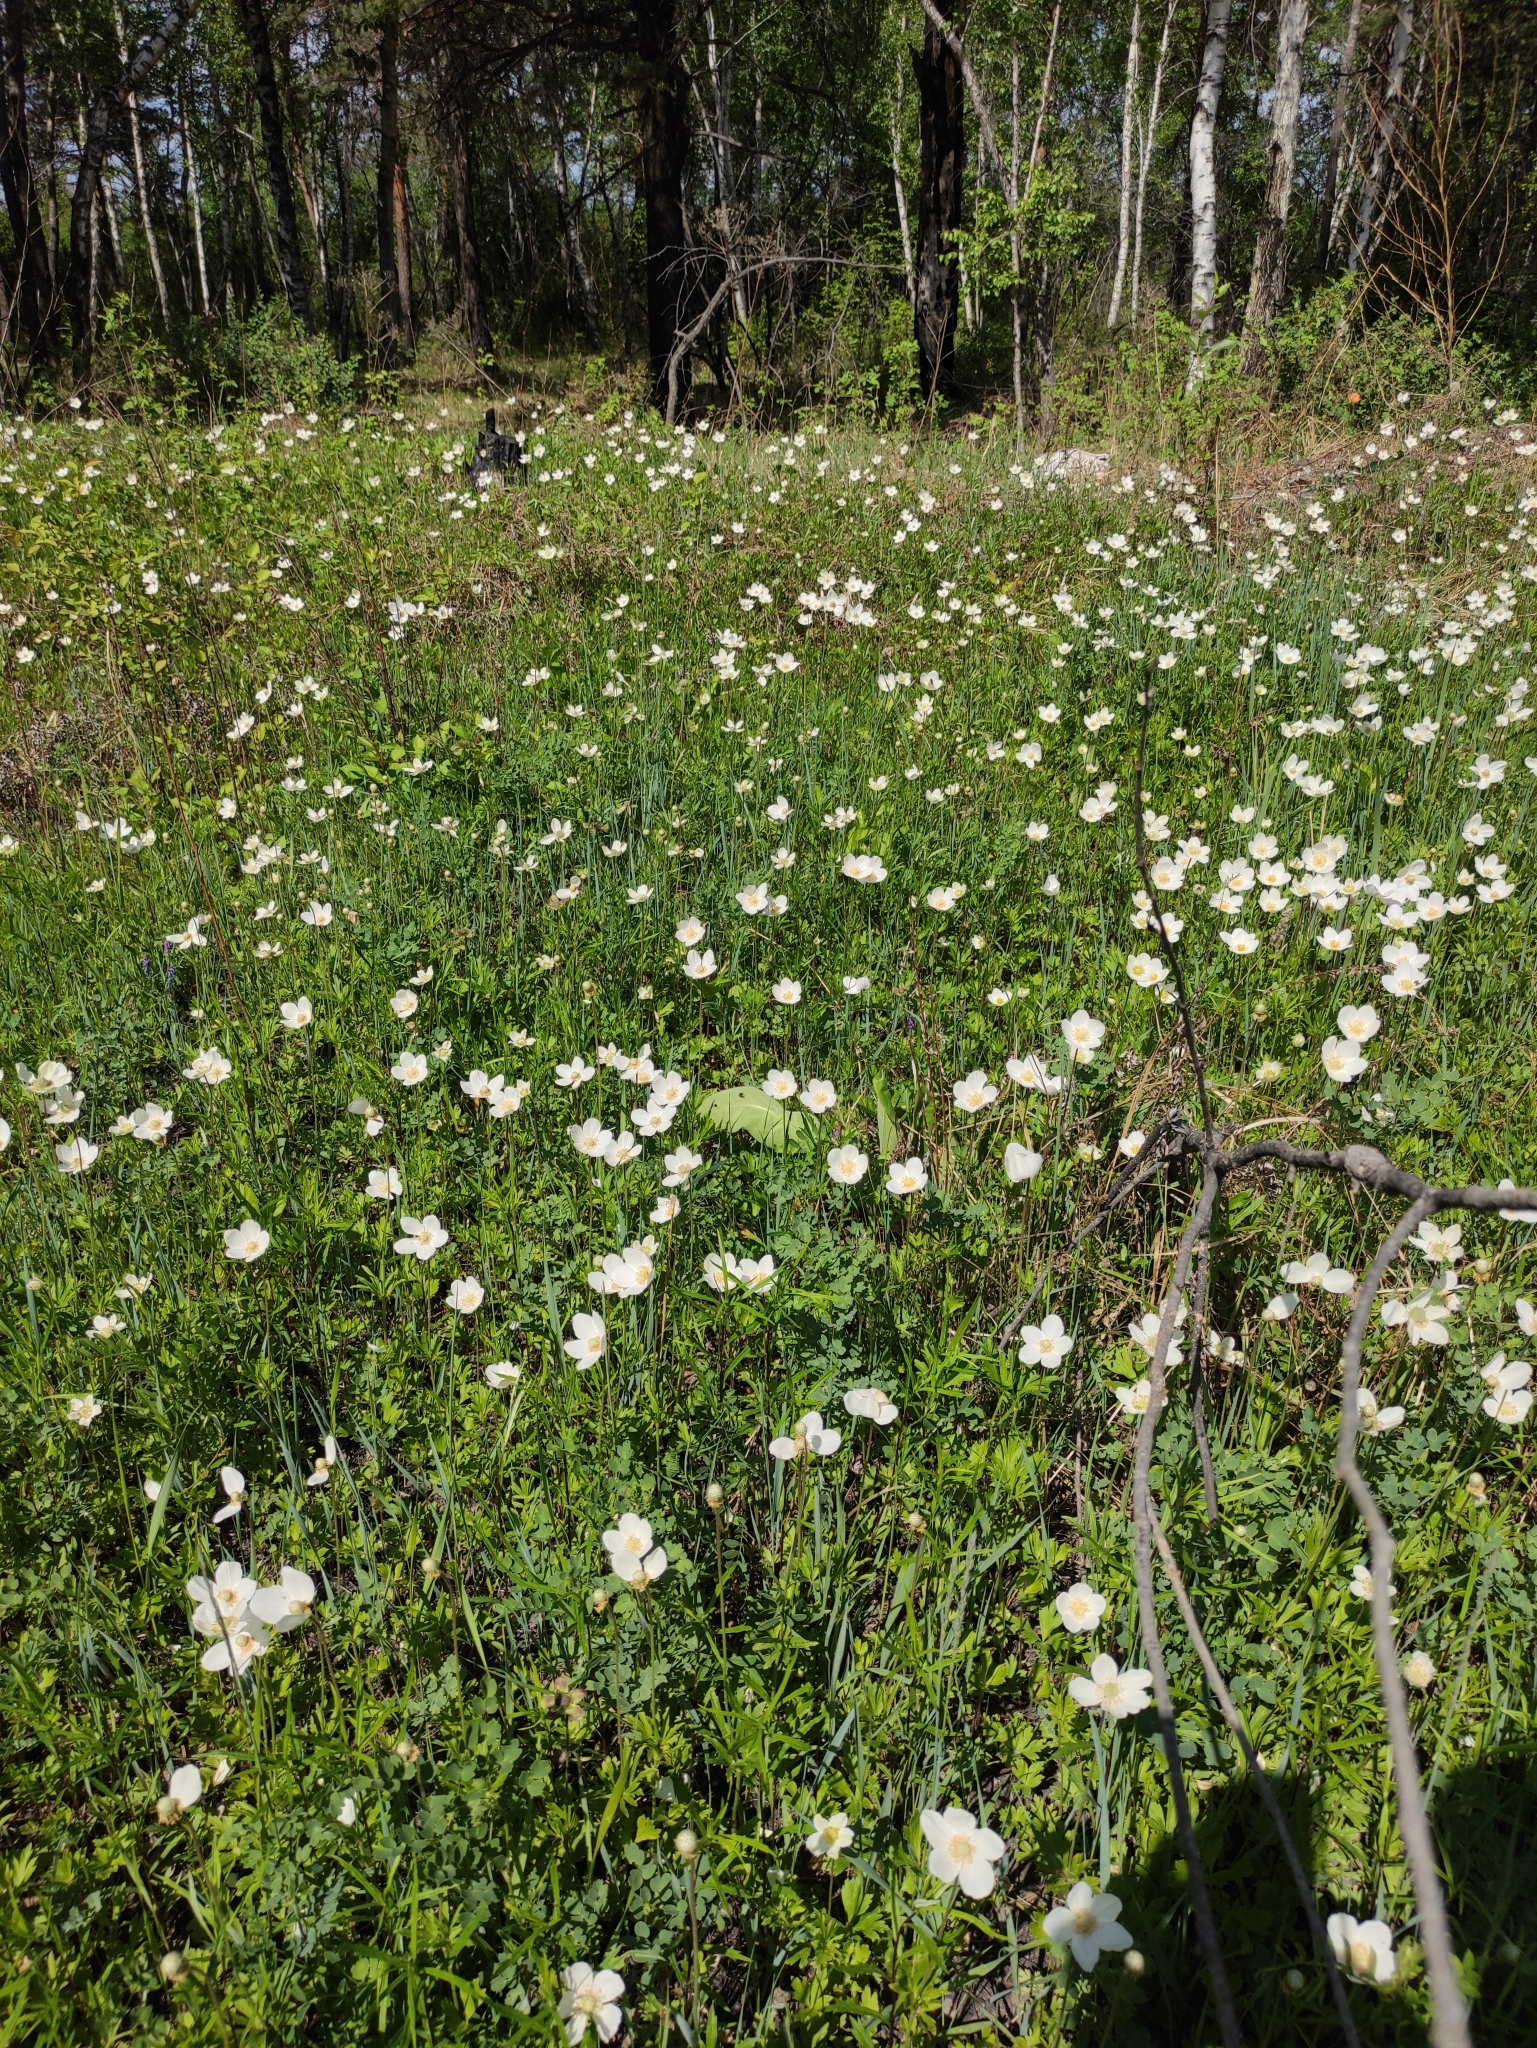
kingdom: Plantae
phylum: Tracheophyta
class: Magnoliopsida
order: Ranunculales
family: Ranunculaceae
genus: Anemone
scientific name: Anemone sylvestris
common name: Snowdrop anemone
